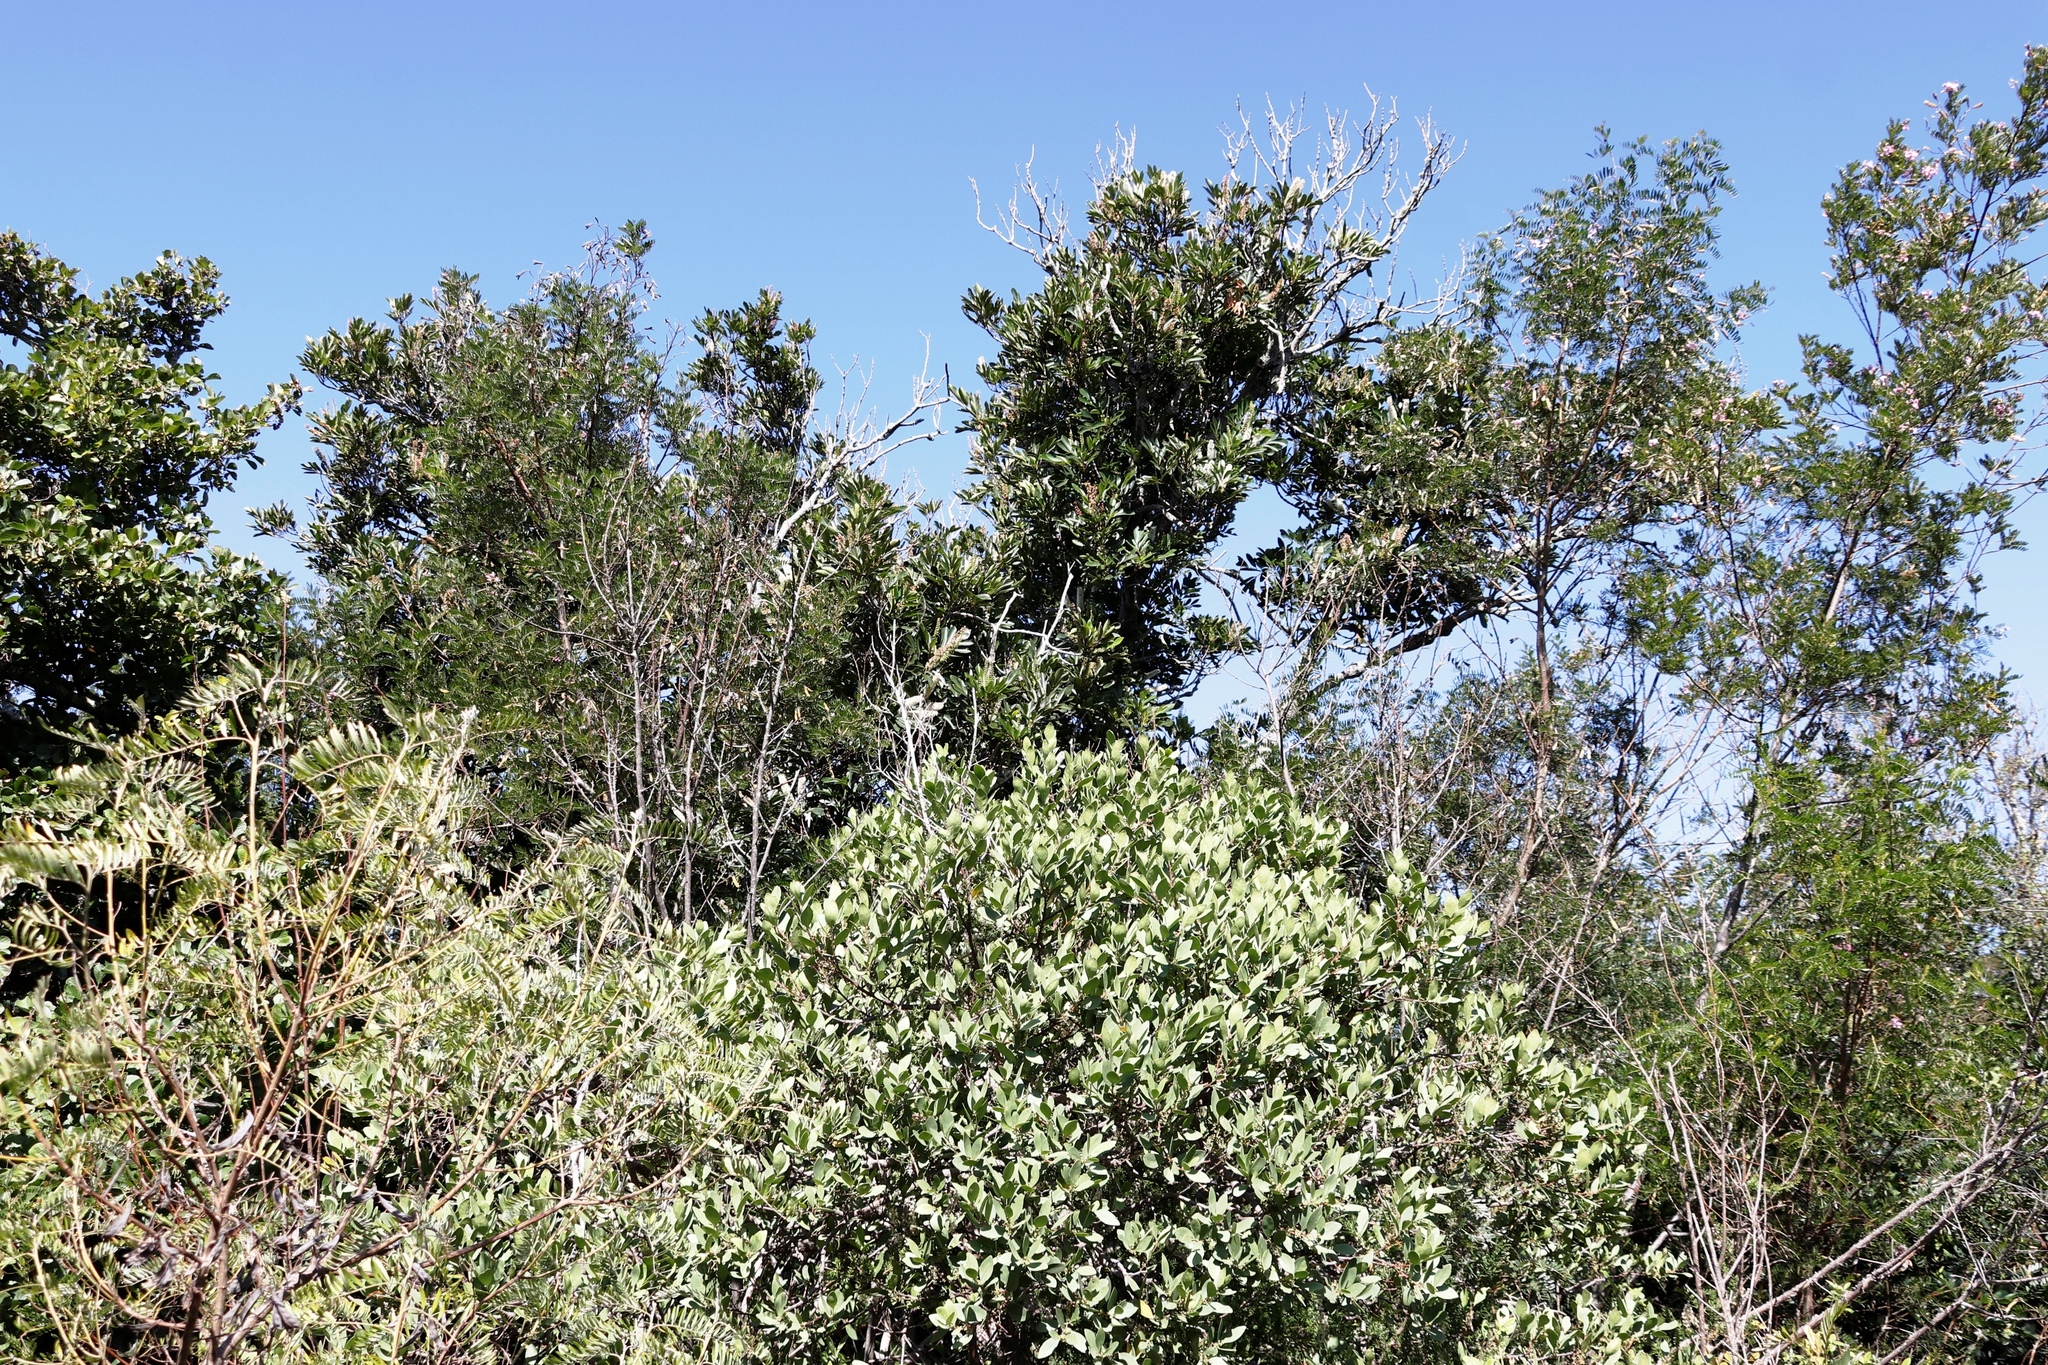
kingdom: Plantae
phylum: Tracheophyta
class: Magnoliopsida
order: Oxalidales
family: Cunoniaceae
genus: Cunonia
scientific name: Cunonia capensis
